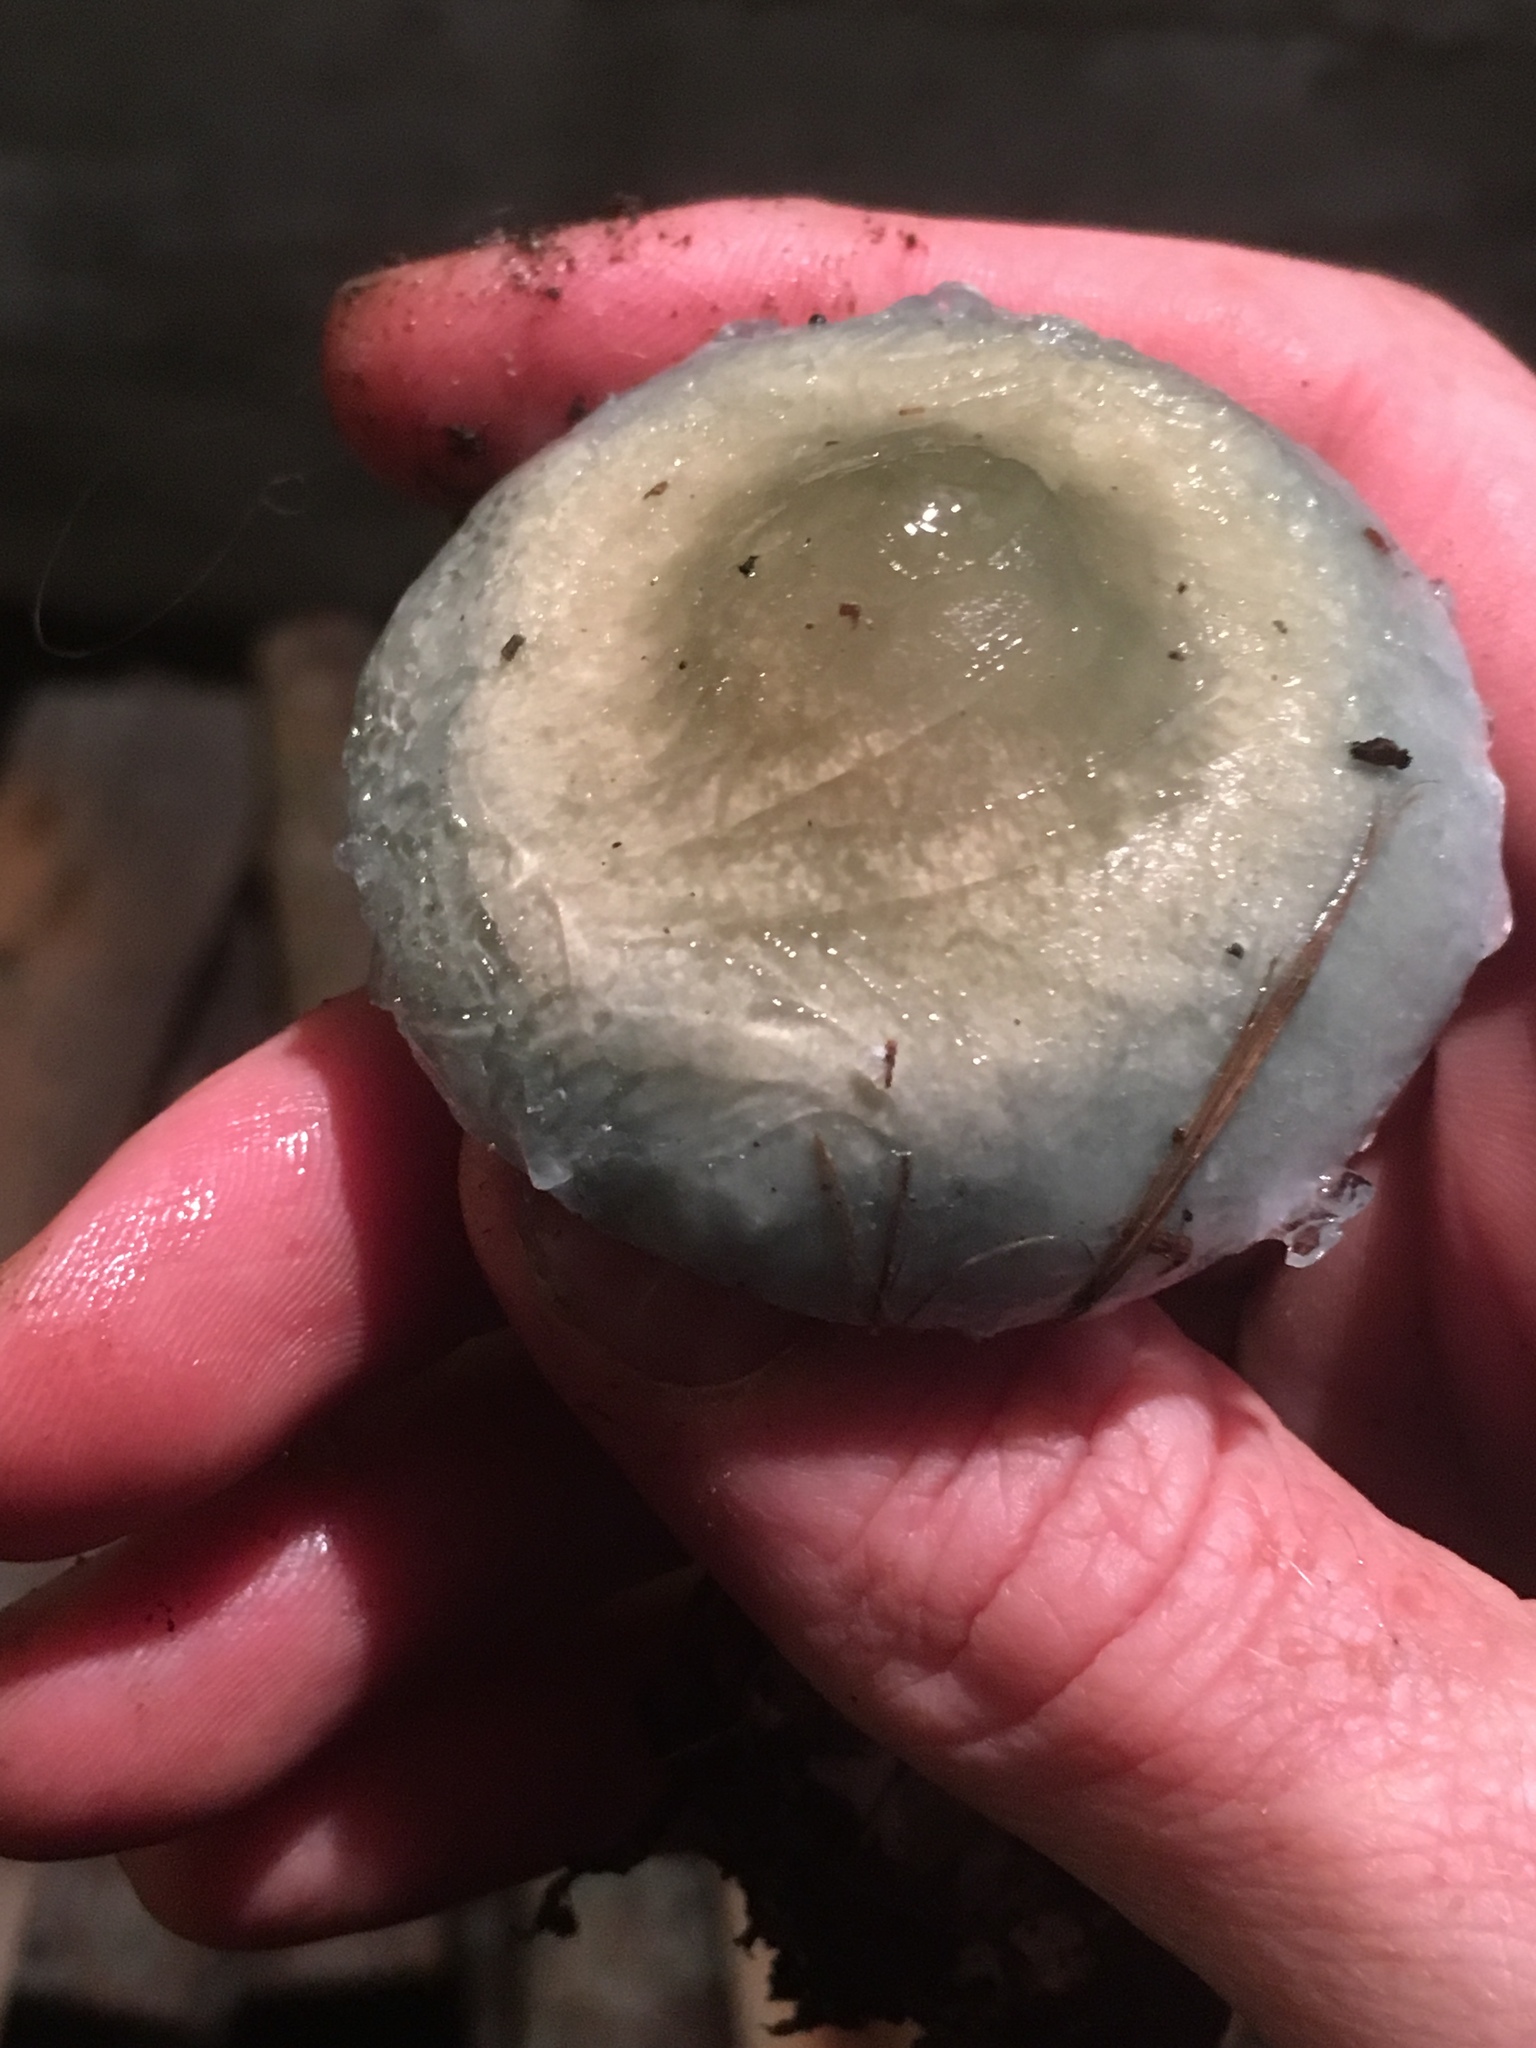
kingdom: Fungi
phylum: Basidiomycota
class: Agaricomycetes
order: Agaricales
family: Strophariaceae
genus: Stropharia
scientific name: Stropharia caerulea
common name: Blue roundhead
